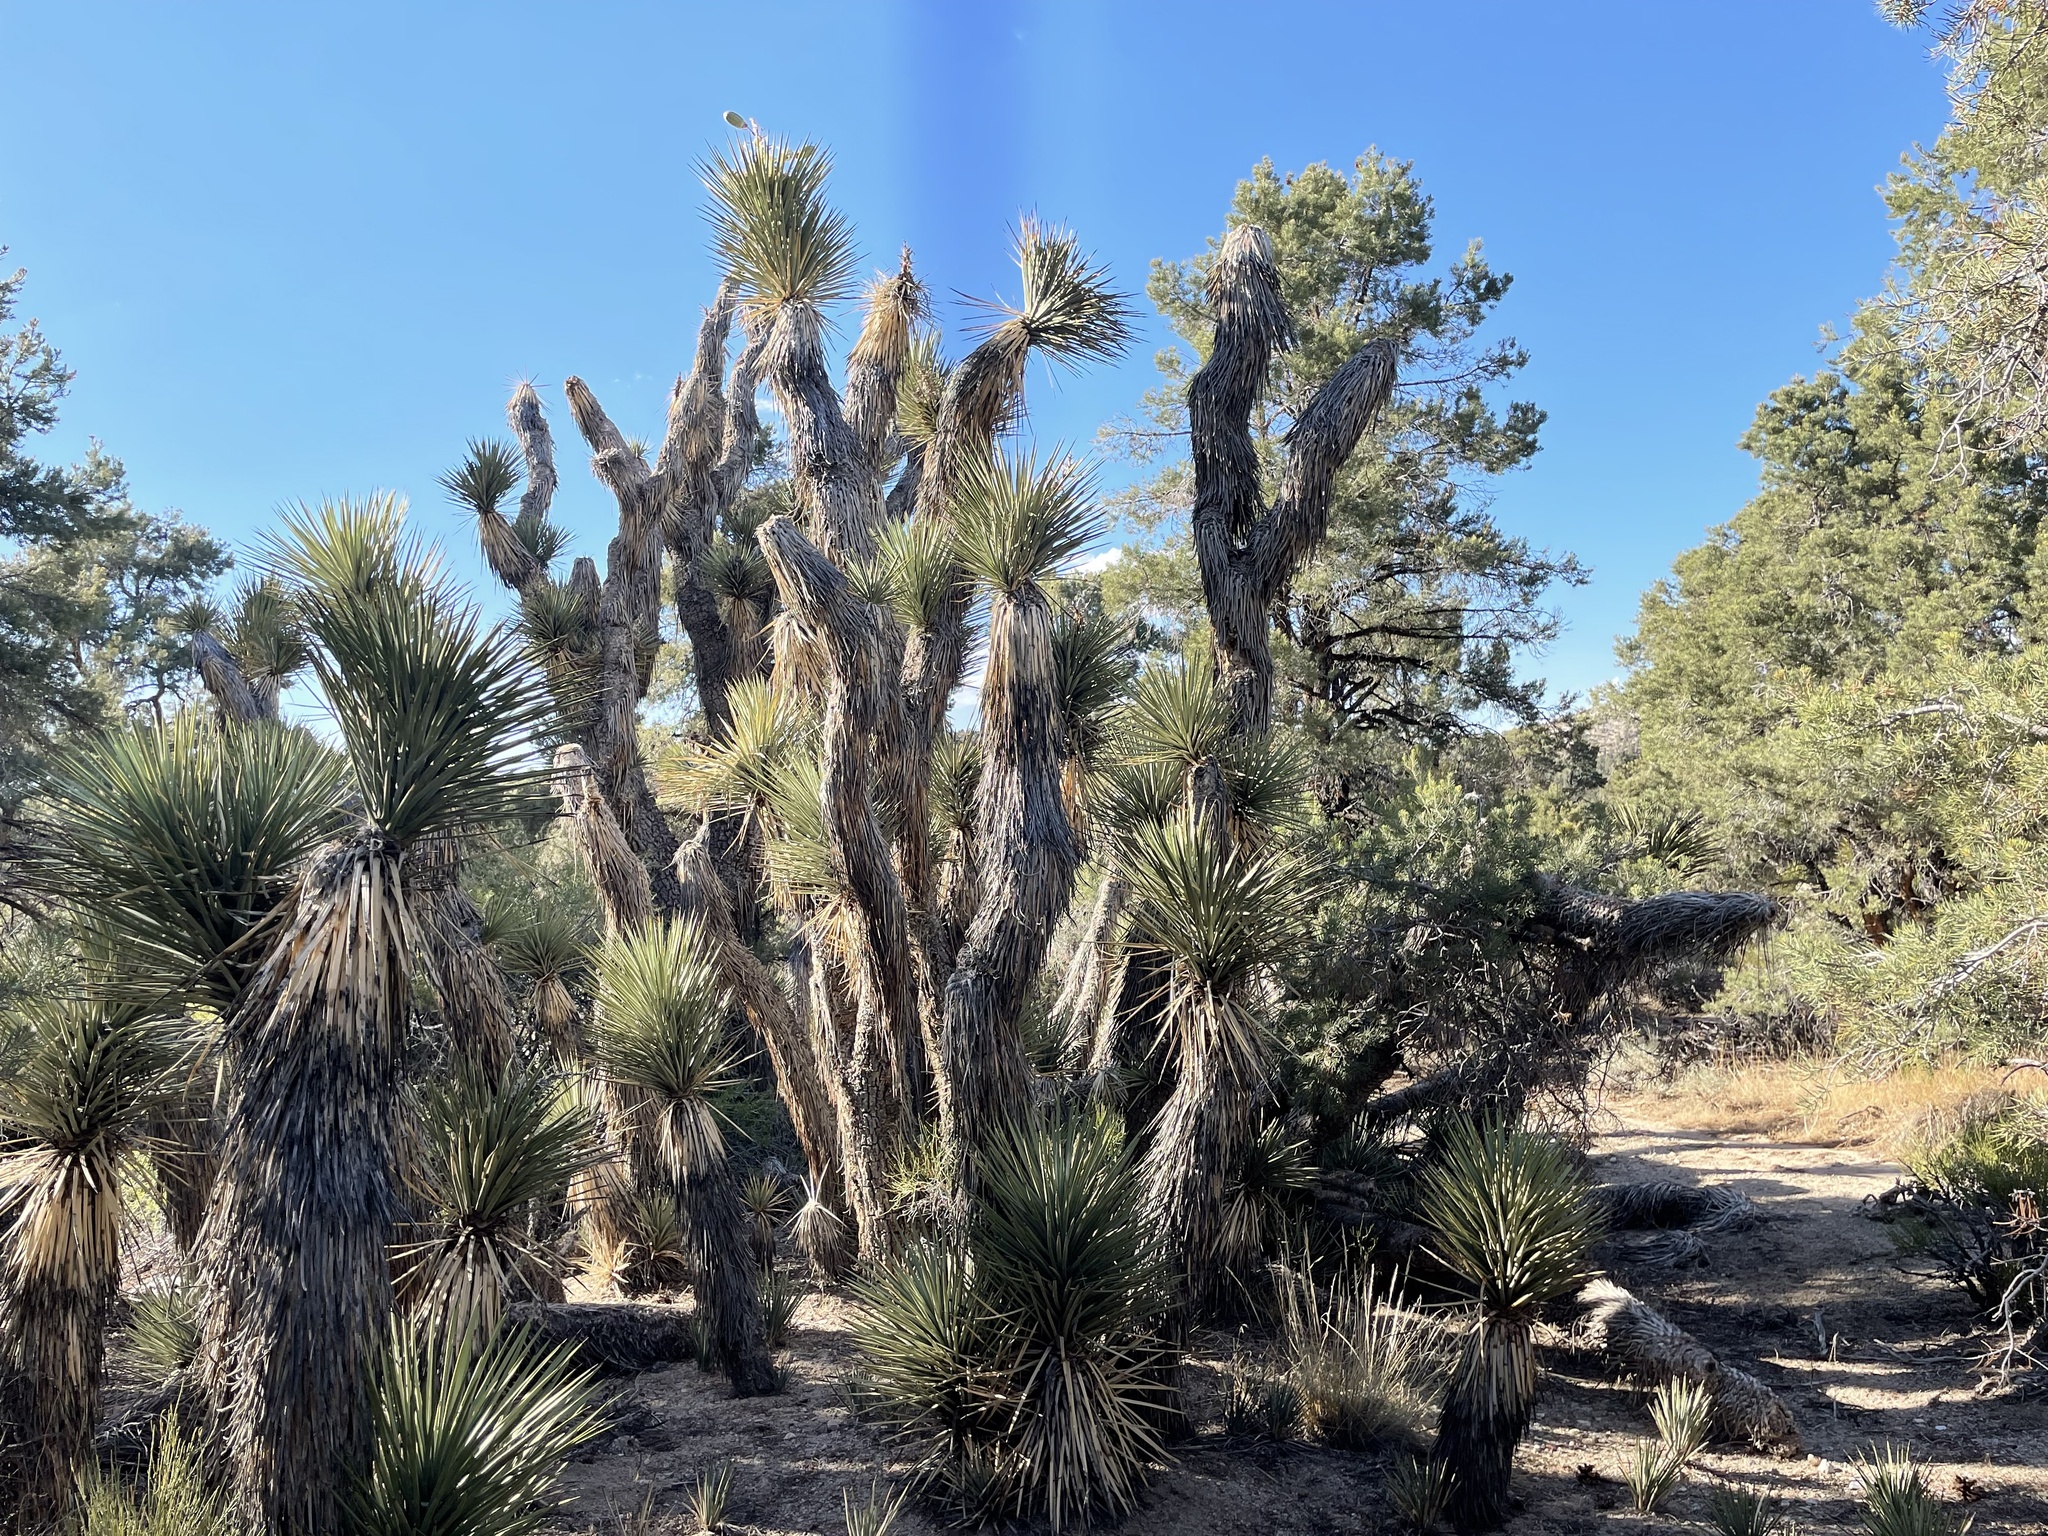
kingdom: Plantae
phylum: Tracheophyta
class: Liliopsida
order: Asparagales
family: Asparagaceae
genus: Yucca
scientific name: Yucca brevifolia
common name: Joshua tree
